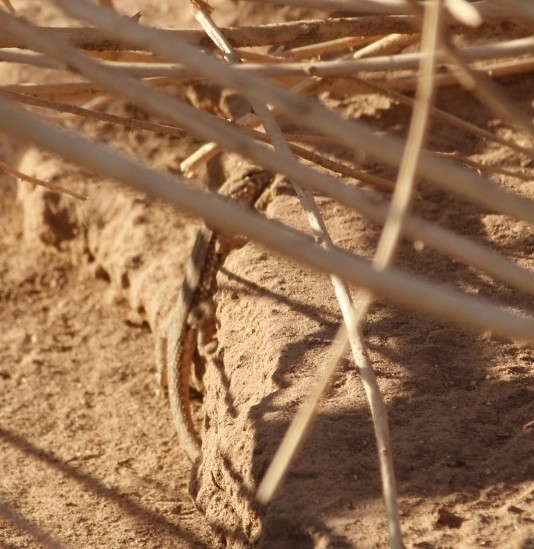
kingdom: Animalia
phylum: Chordata
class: Squamata
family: Phrynosomatidae
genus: Uta
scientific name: Uta stansburiana
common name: Side-blotched lizard
